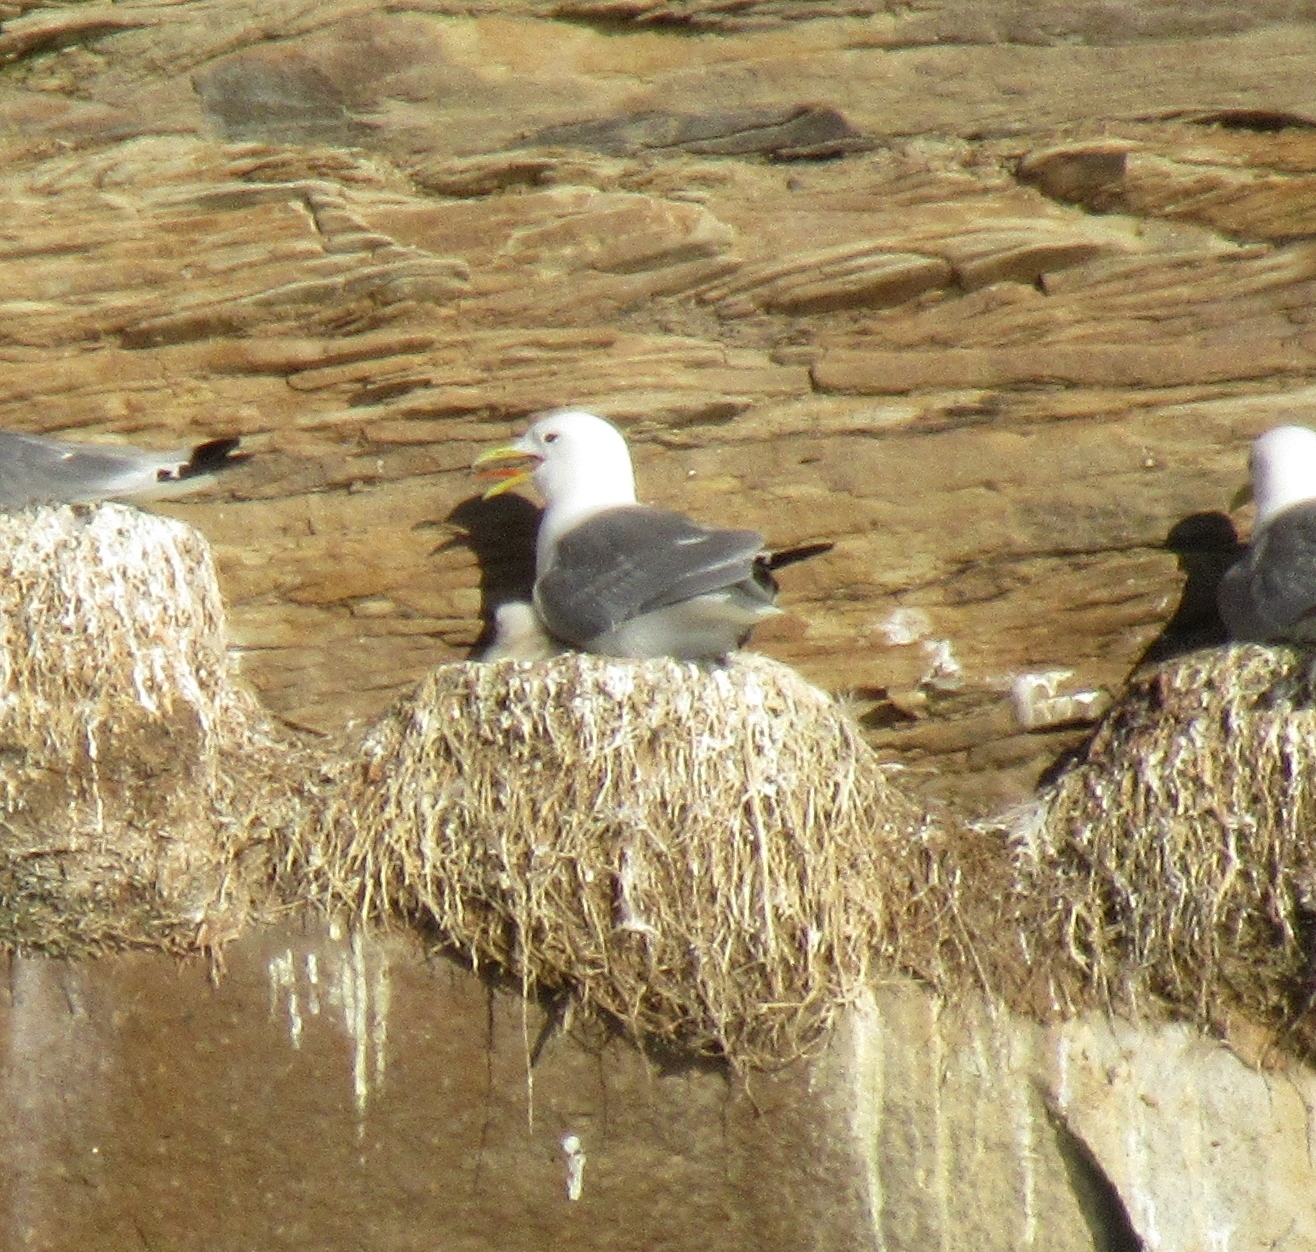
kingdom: Animalia
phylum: Chordata
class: Aves
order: Charadriiformes
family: Laridae
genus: Rissa
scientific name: Rissa tridactyla
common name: Black-legged kittiwake
